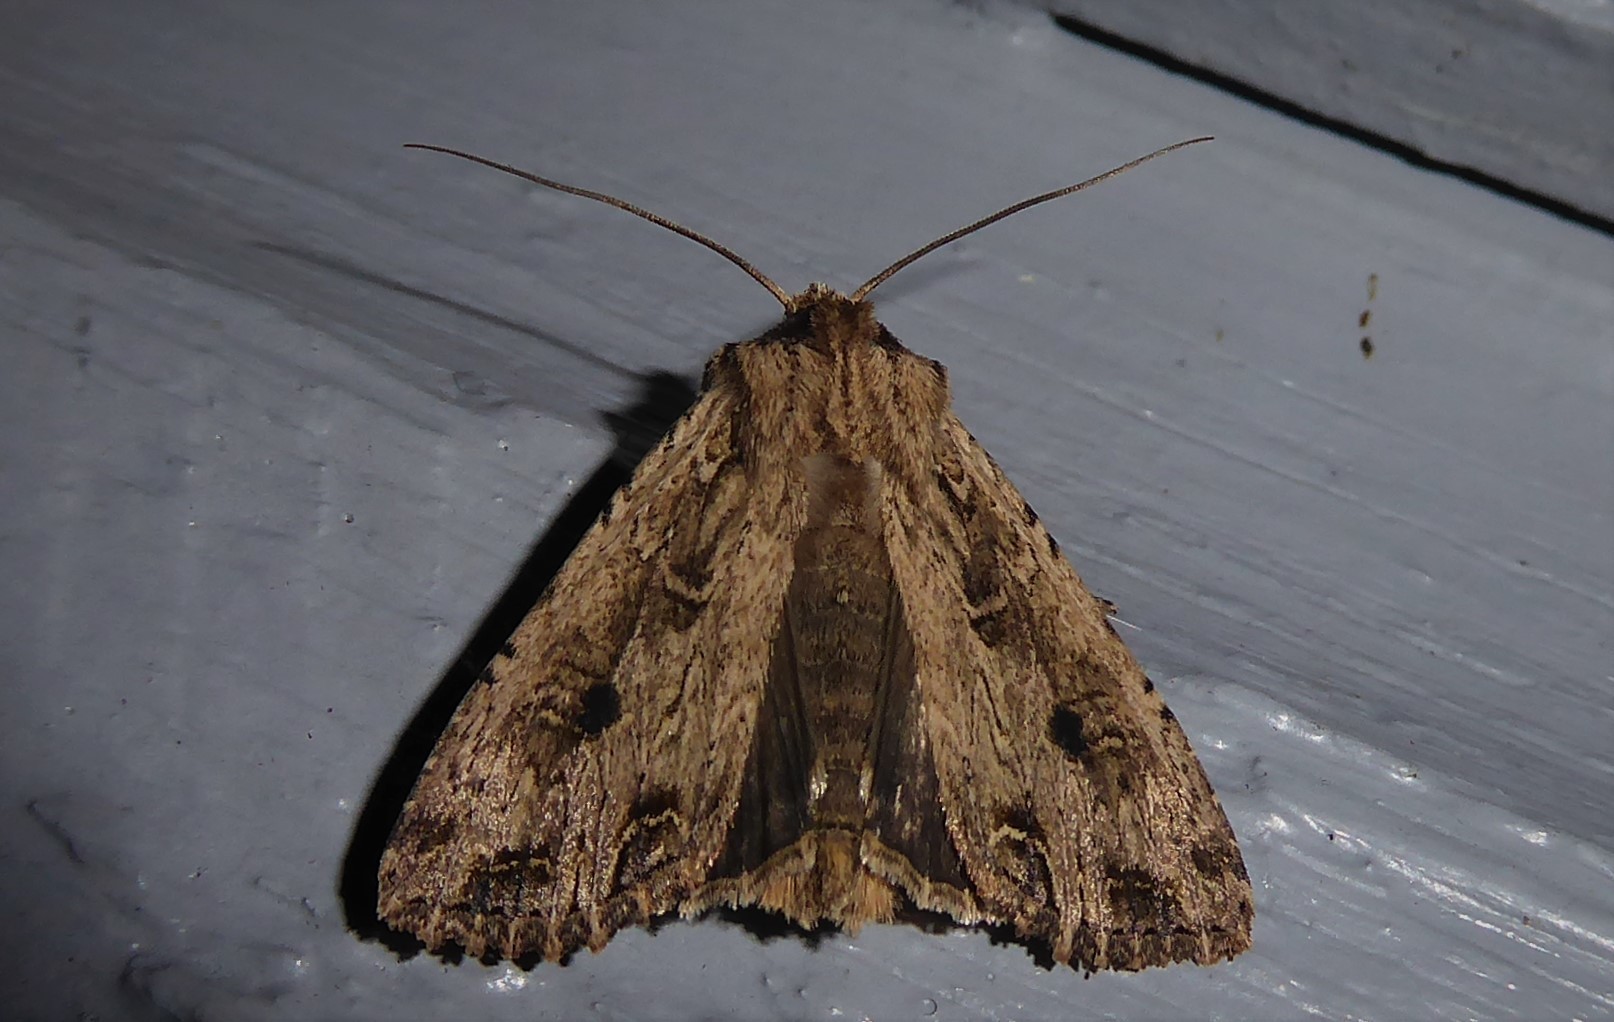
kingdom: Animalia
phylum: Arthropoda
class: Insecta
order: Lepidoptera
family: Noctuidae
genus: Ichneutica
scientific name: Ichneutica lignana
